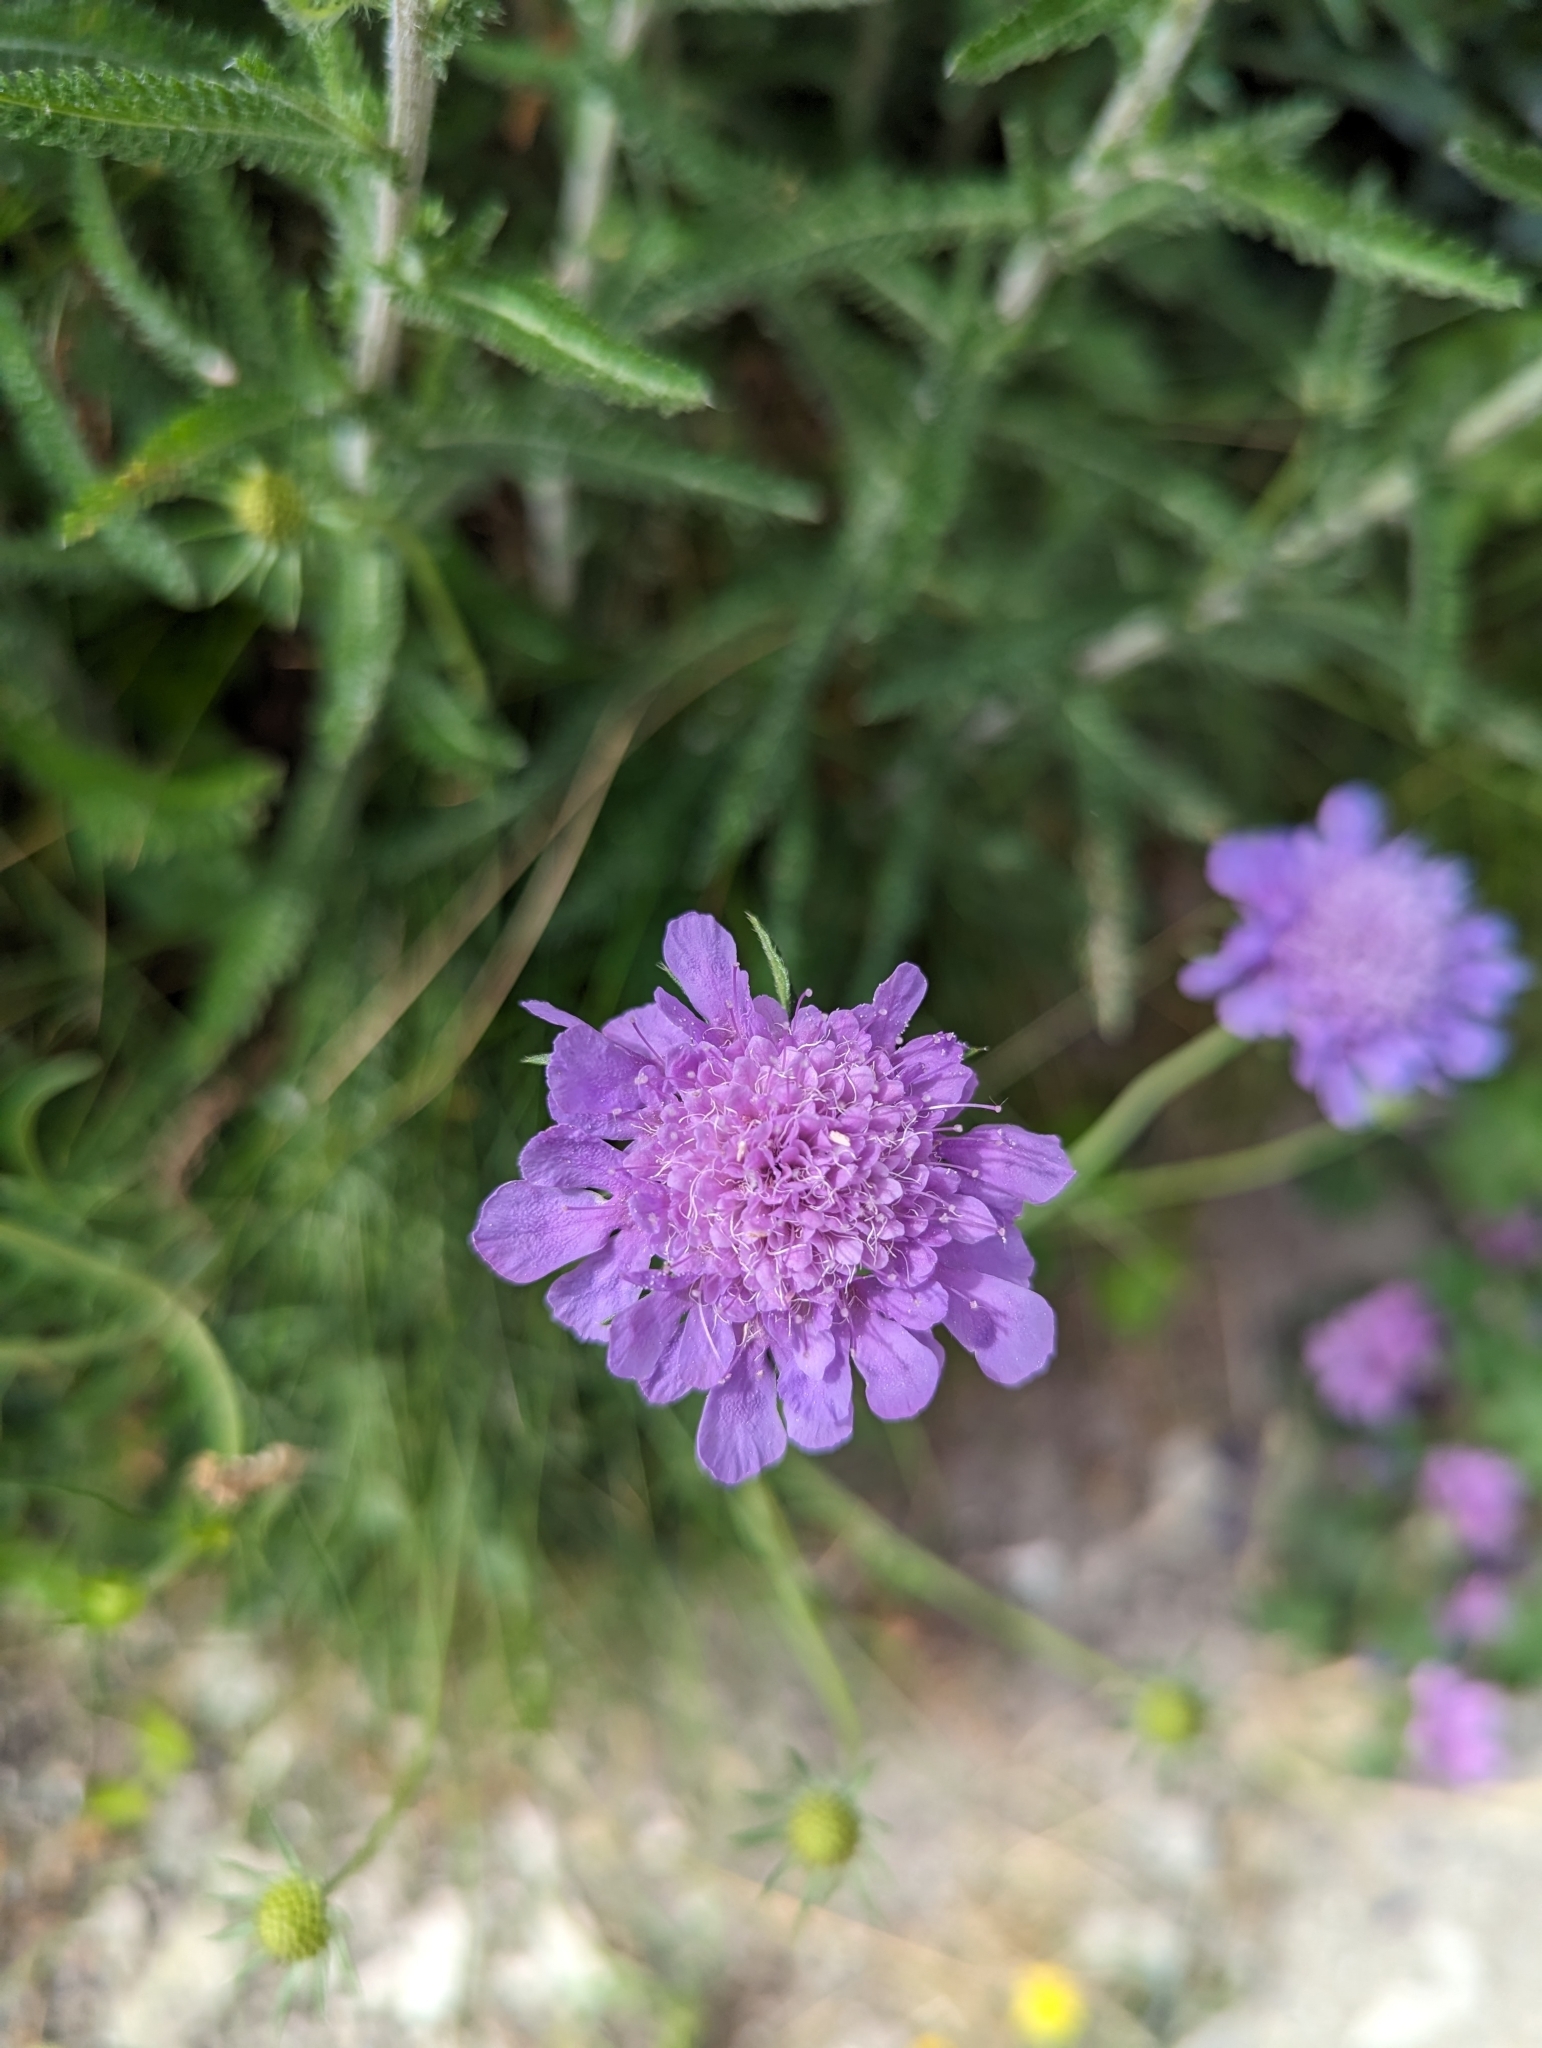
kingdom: Plantae
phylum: Tracheophyta
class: Magnoliopsida
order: Dipsacales
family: Caprifoliaceae
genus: Scabiosa
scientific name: Scabiosa columbaria
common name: Small scabious
